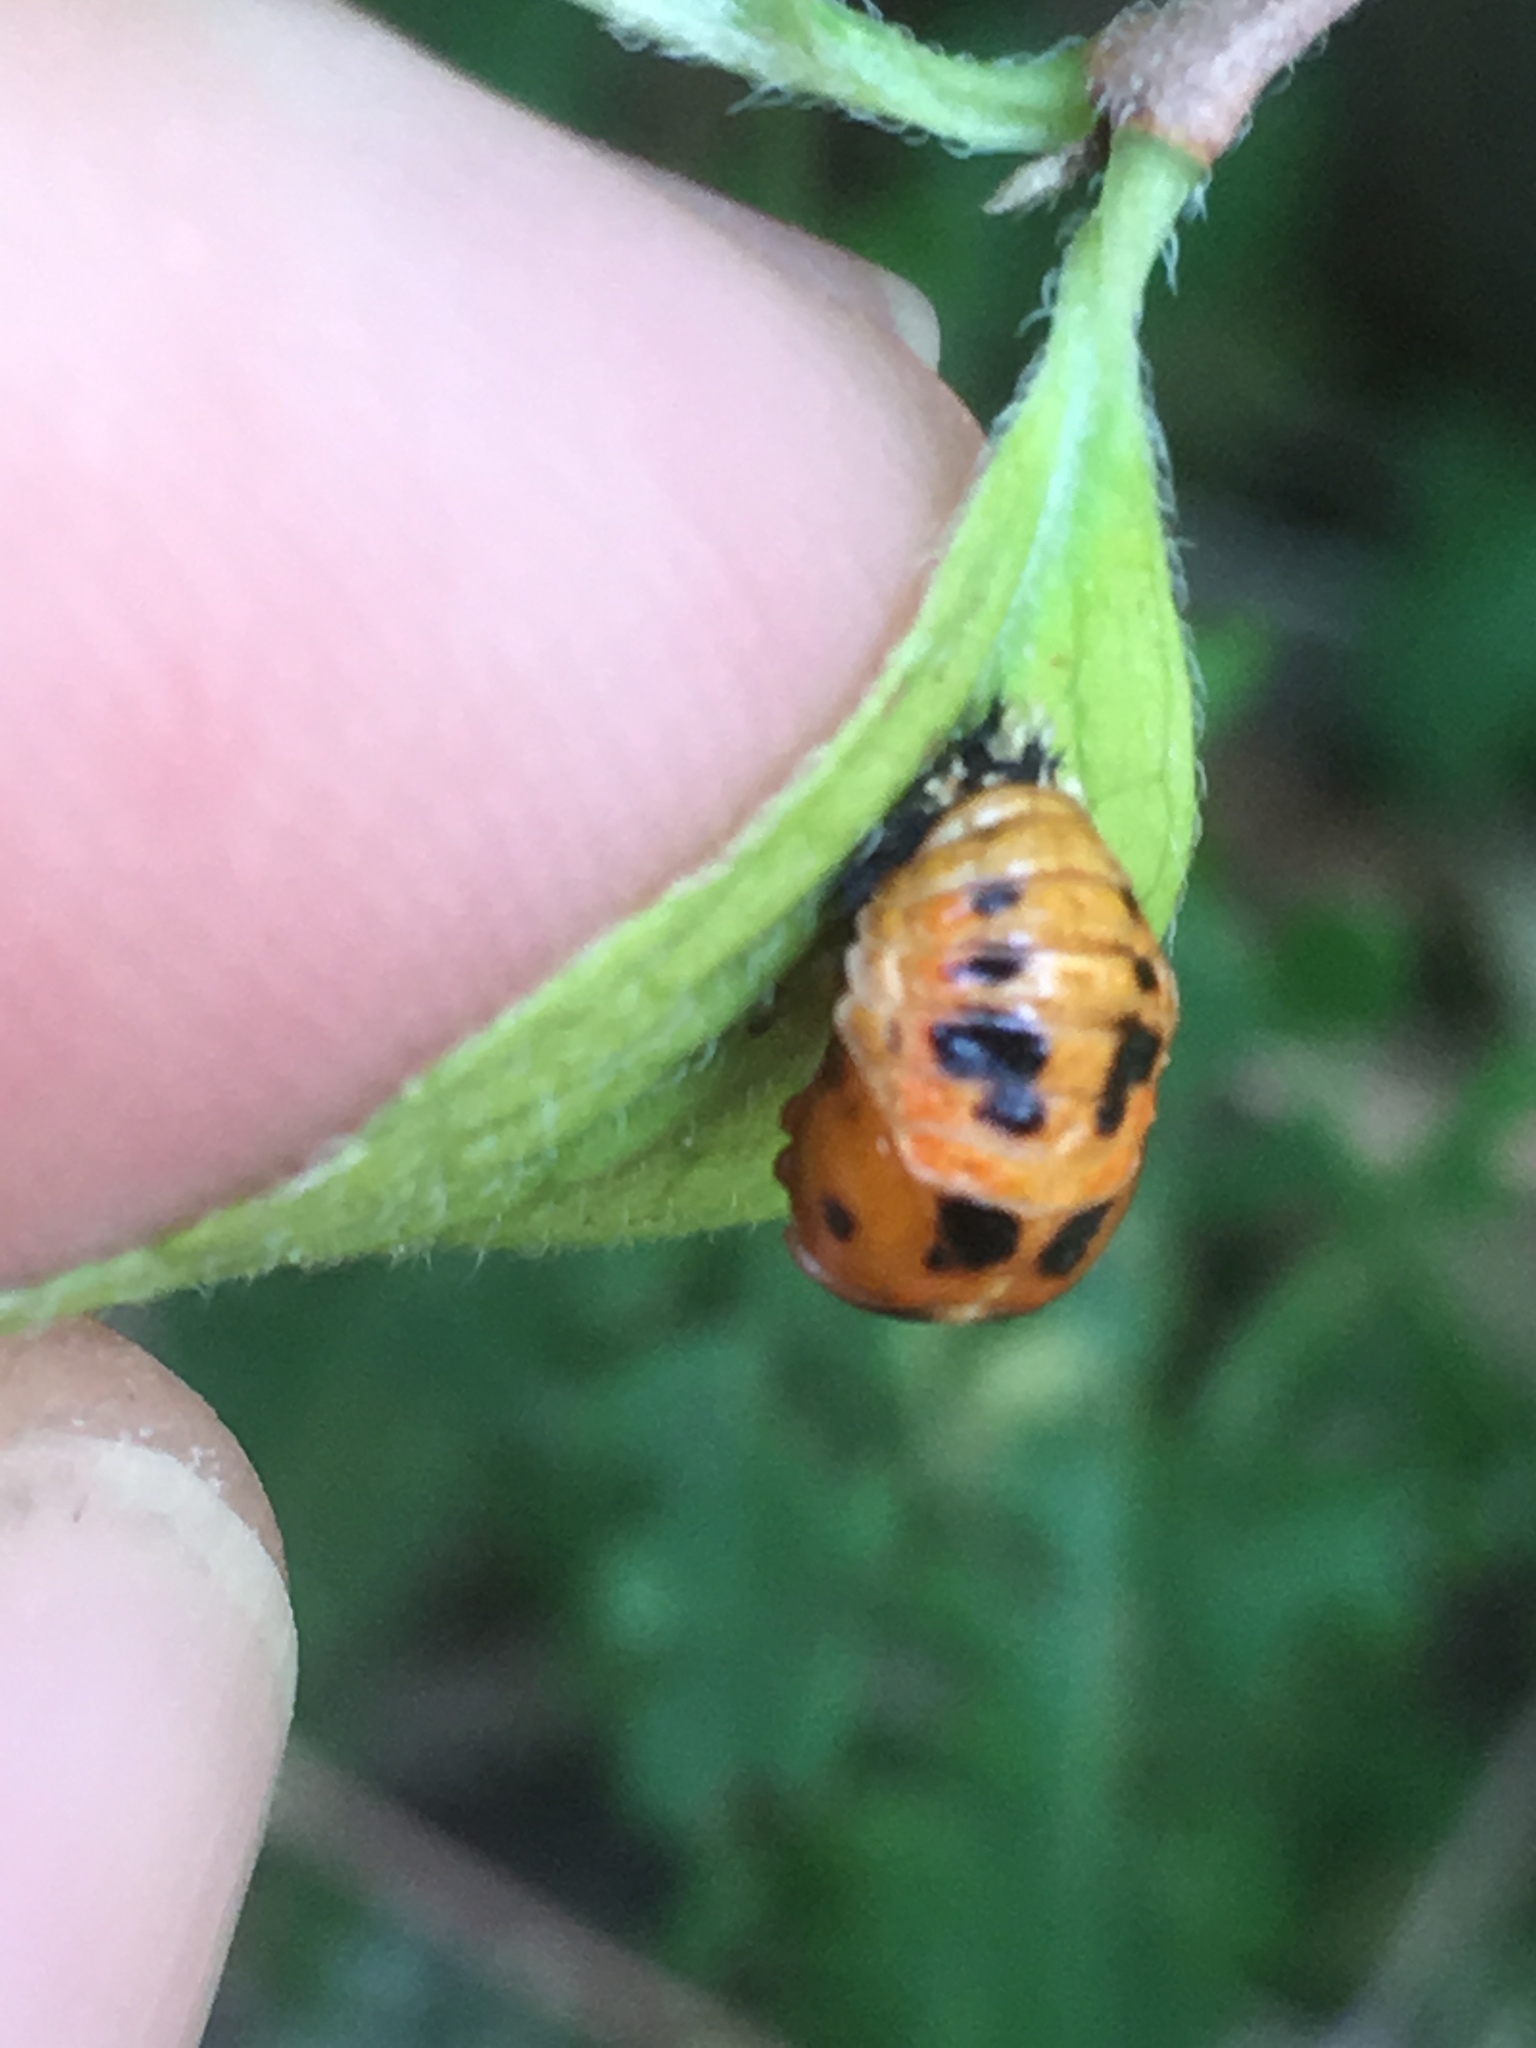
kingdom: Animalia
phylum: Arthropoda
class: Insecta
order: Coleoptera
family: Coccinellidae
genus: Harmonia
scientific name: Harmonia axyridis
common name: Harlequin ladybird
